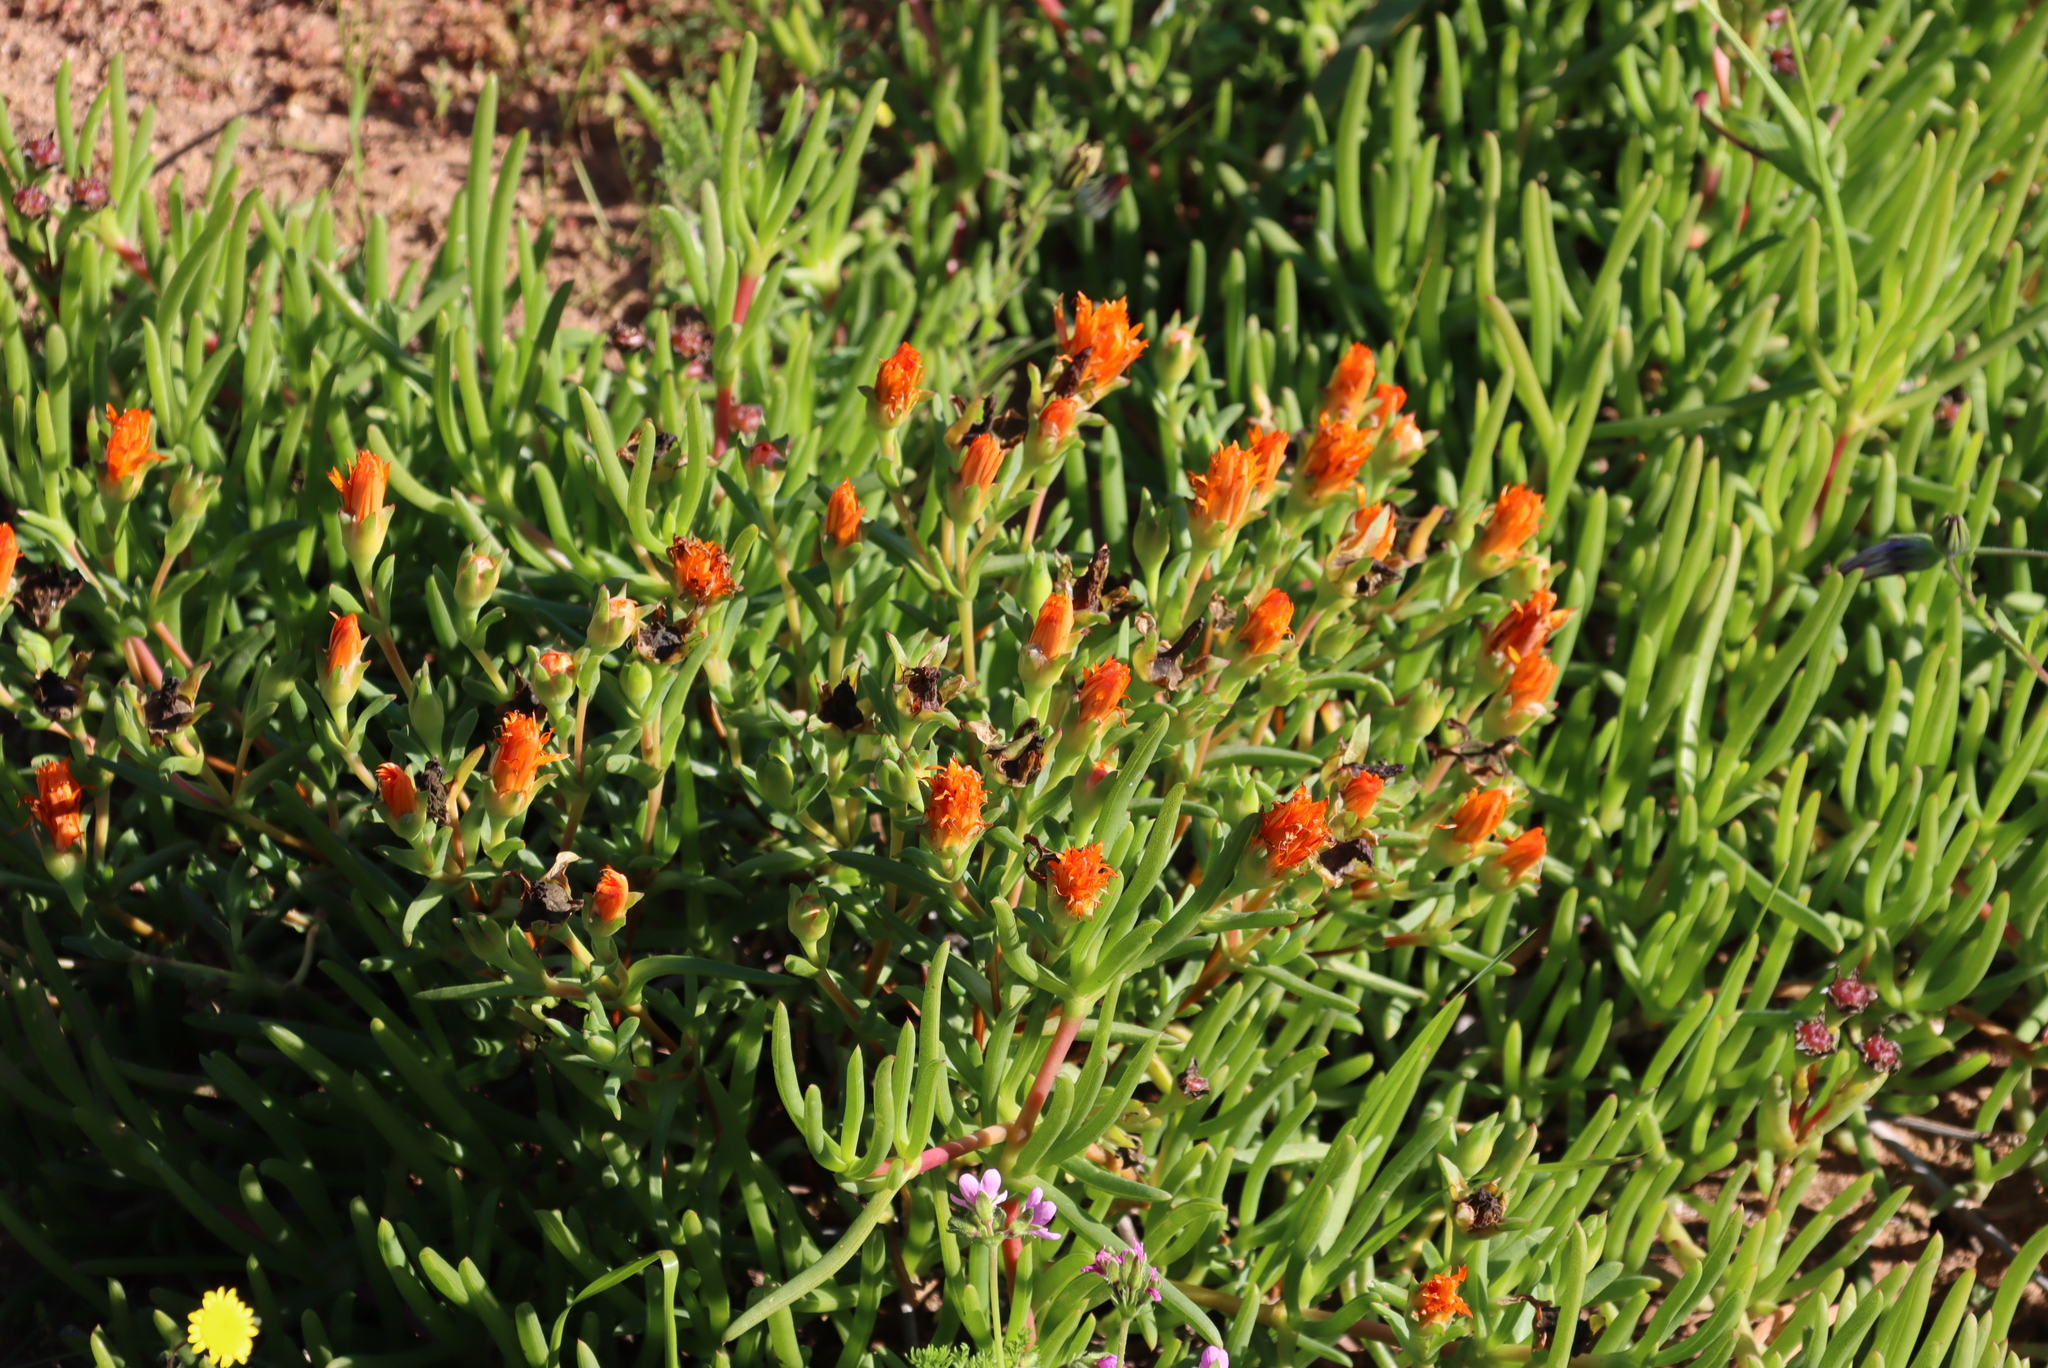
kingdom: Plantae
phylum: Tracheophyta
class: Magnoliopsida
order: Caryophyllales
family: Aizoaceae
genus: Lampranthus
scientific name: Lampranthus aureus
